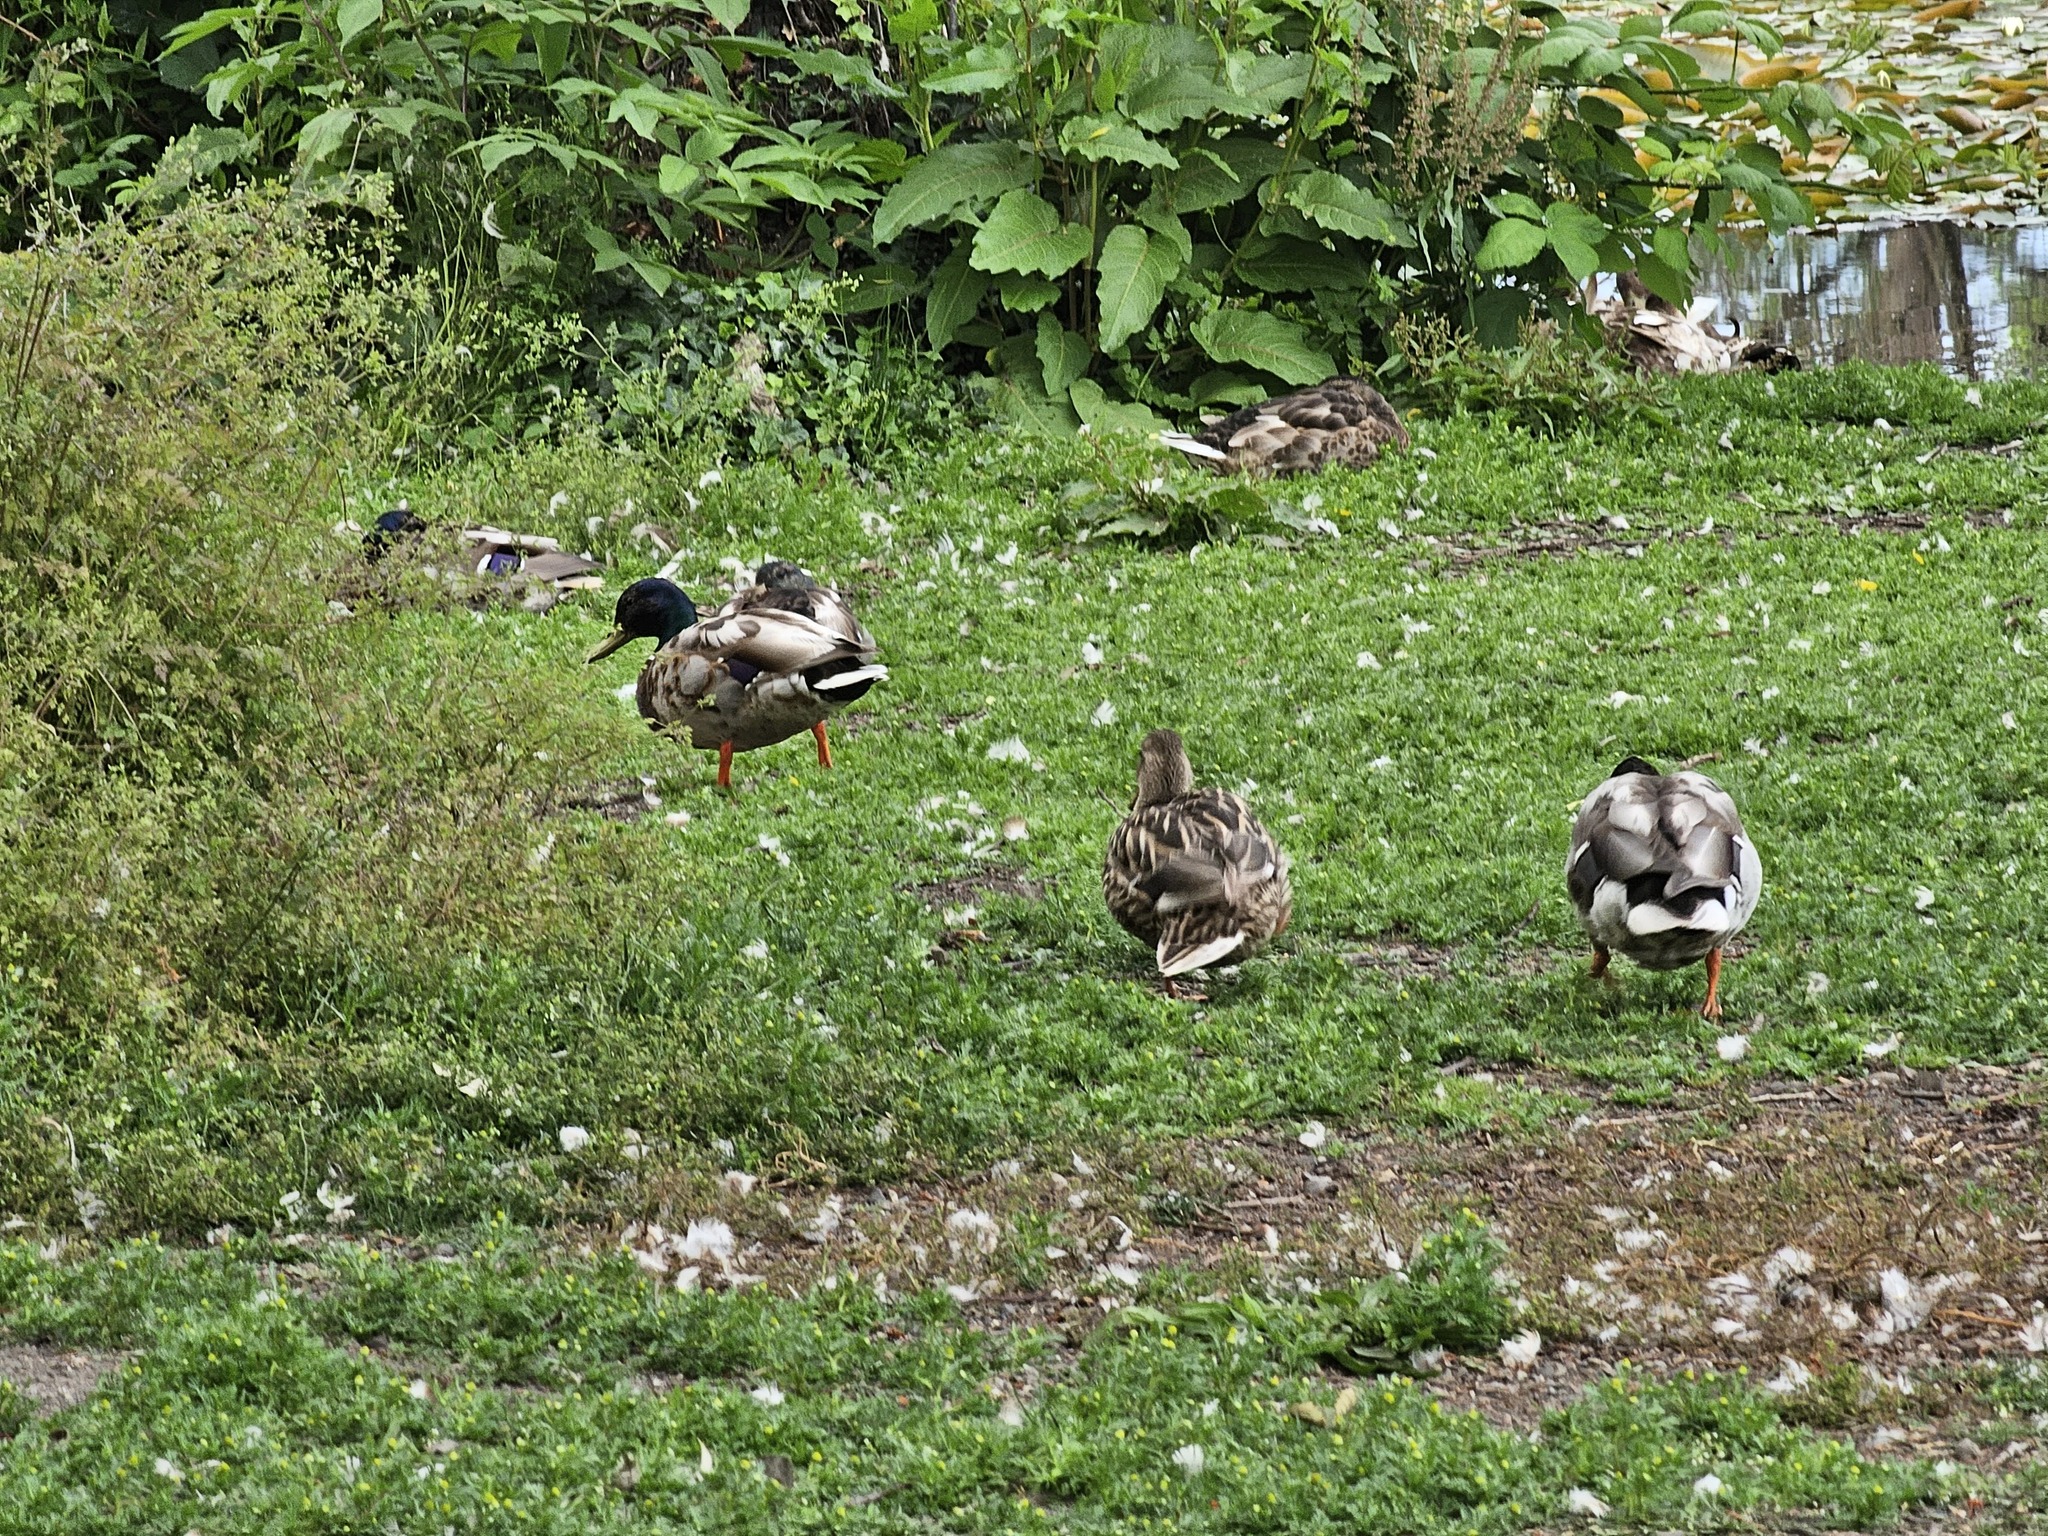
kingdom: Animalia
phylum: Chordata
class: Aves
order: Anseriformes
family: Anatidae
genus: Anas
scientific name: Anas platyrhynchos
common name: Mallard
